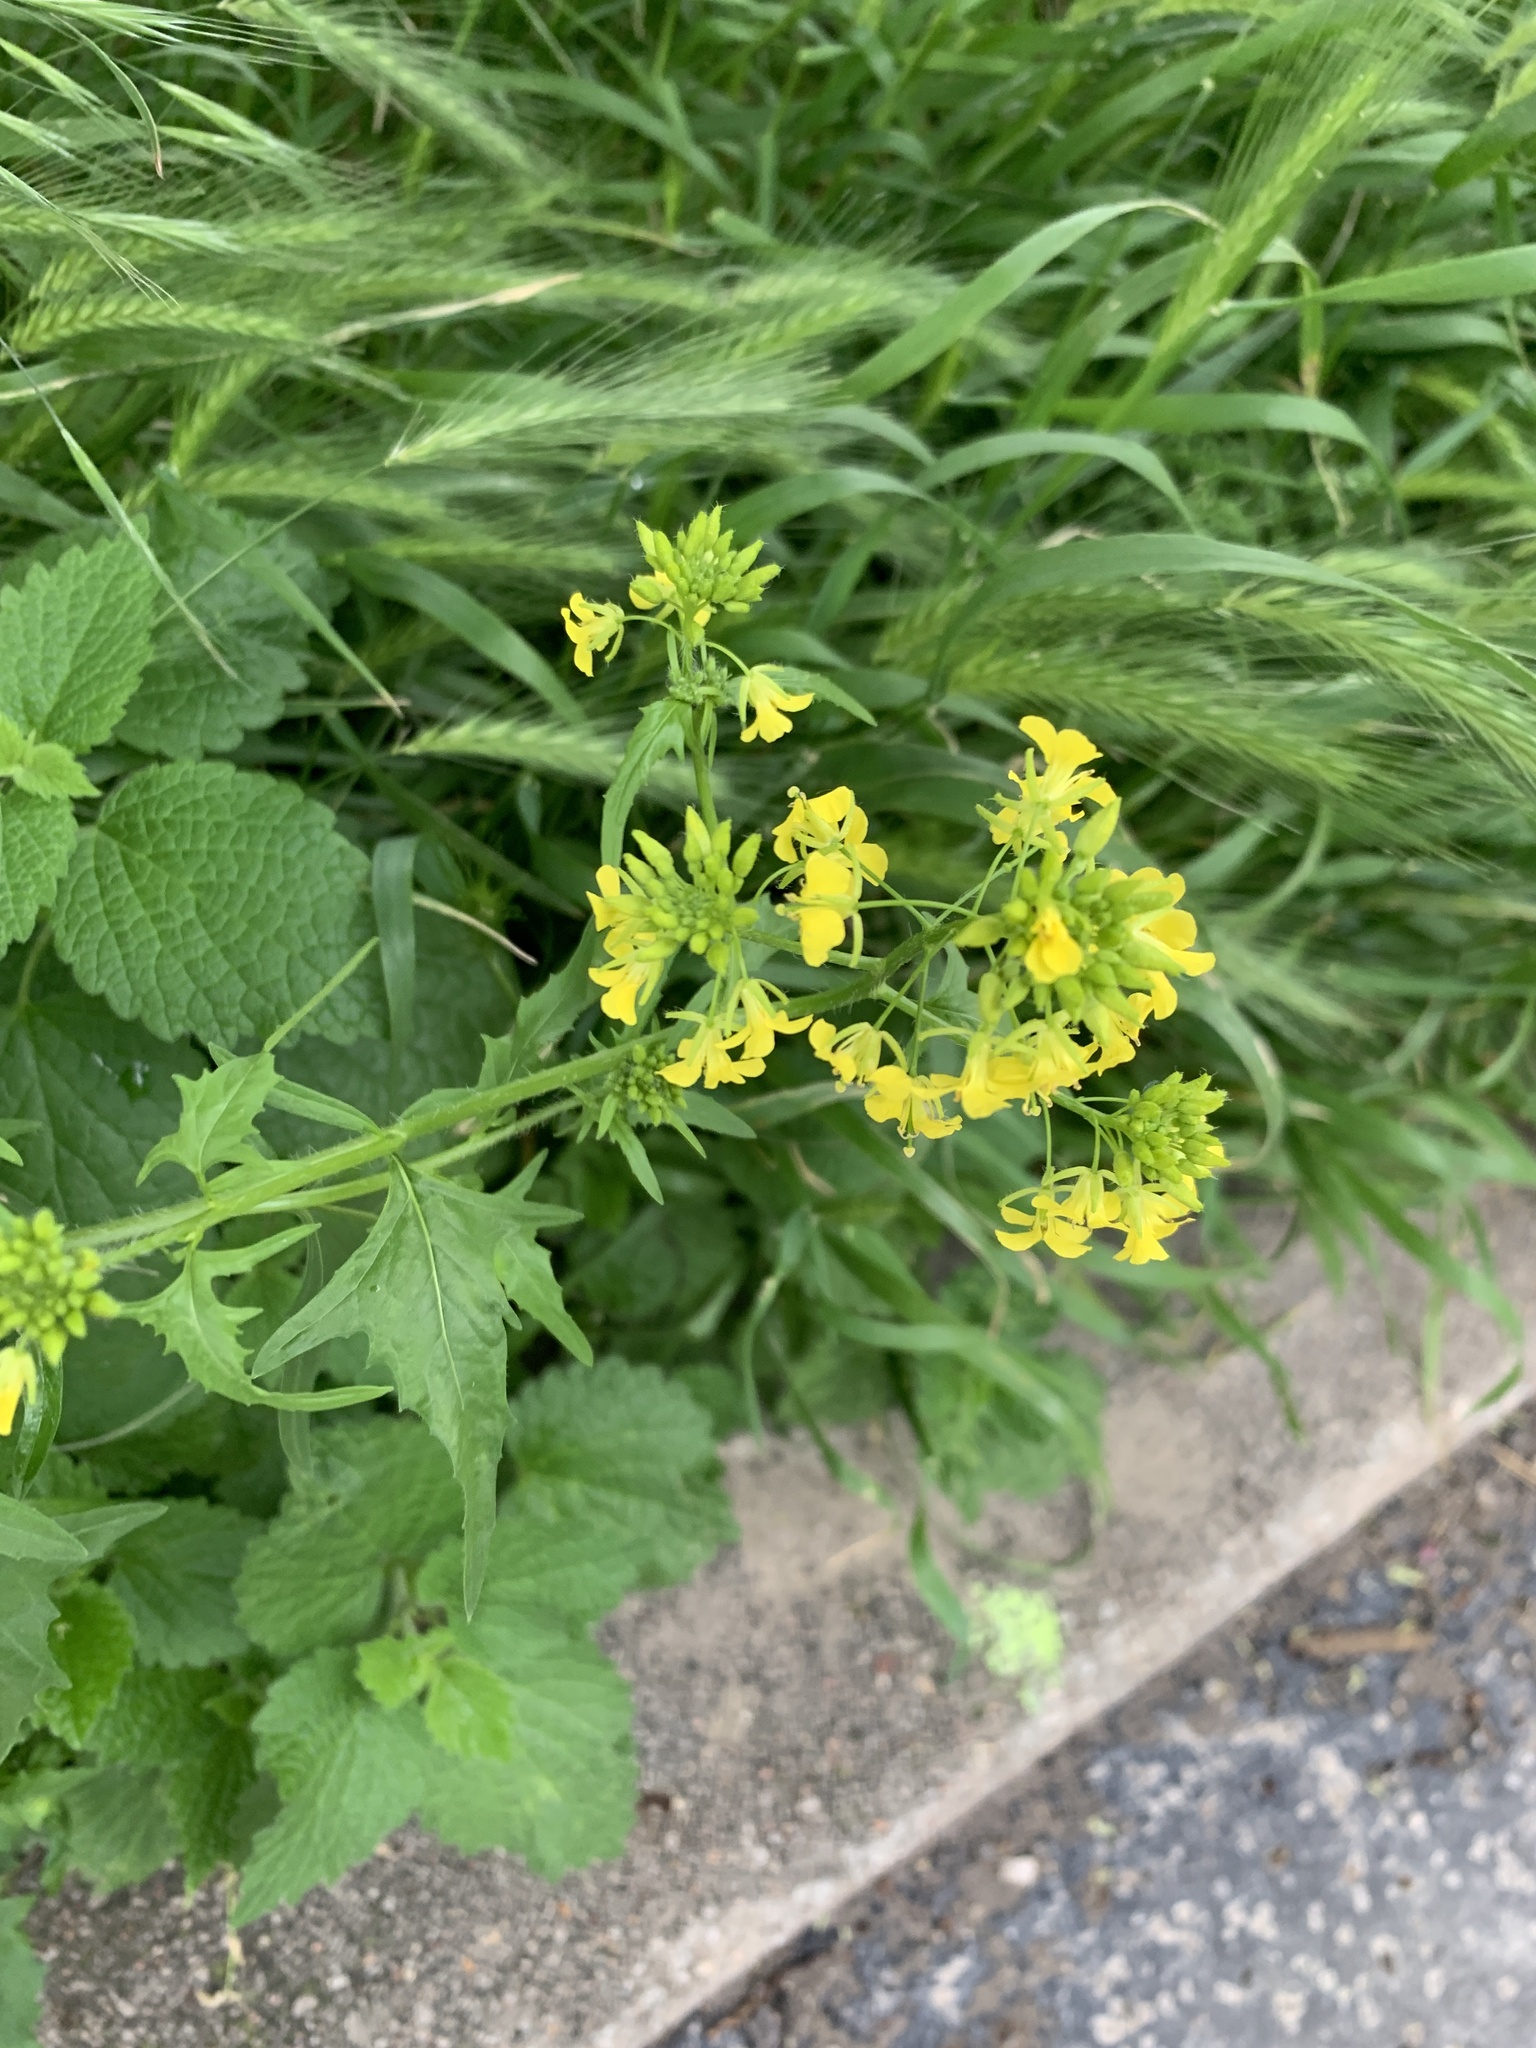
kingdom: Plantae
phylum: Tracheophyta
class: Magnoliopsida
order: Brassicales
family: Brassicaceae
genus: Sisymbrium
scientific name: Sisymbrium loeselii
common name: False london-rocket
